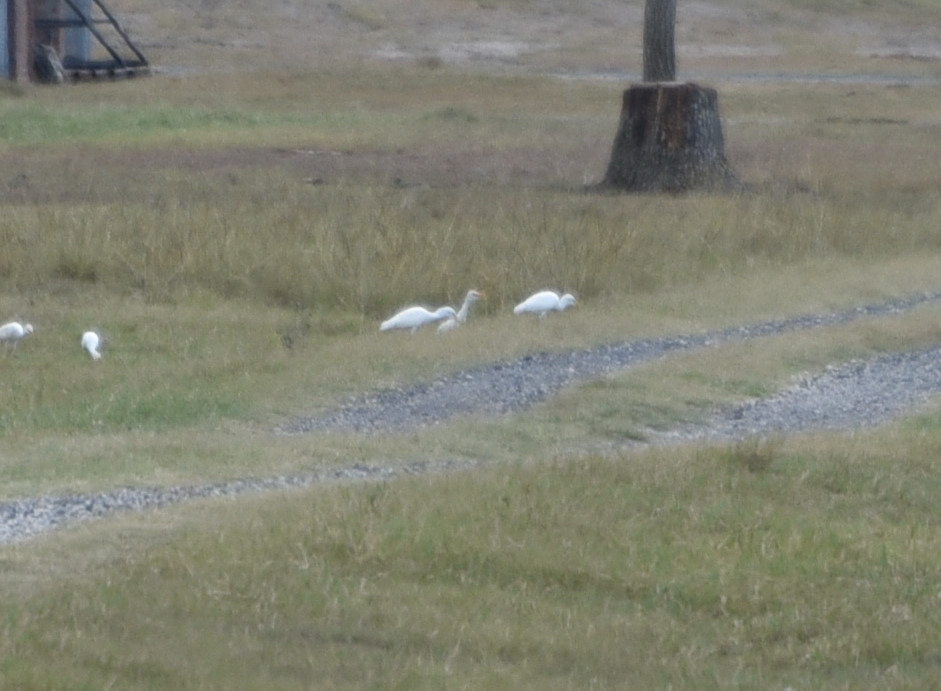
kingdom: Animalia
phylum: Chordata
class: Aves
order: Pelecaniformes
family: Ardeidae
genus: Bubulcus
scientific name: Bubulcus ibis
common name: Cattle egret
